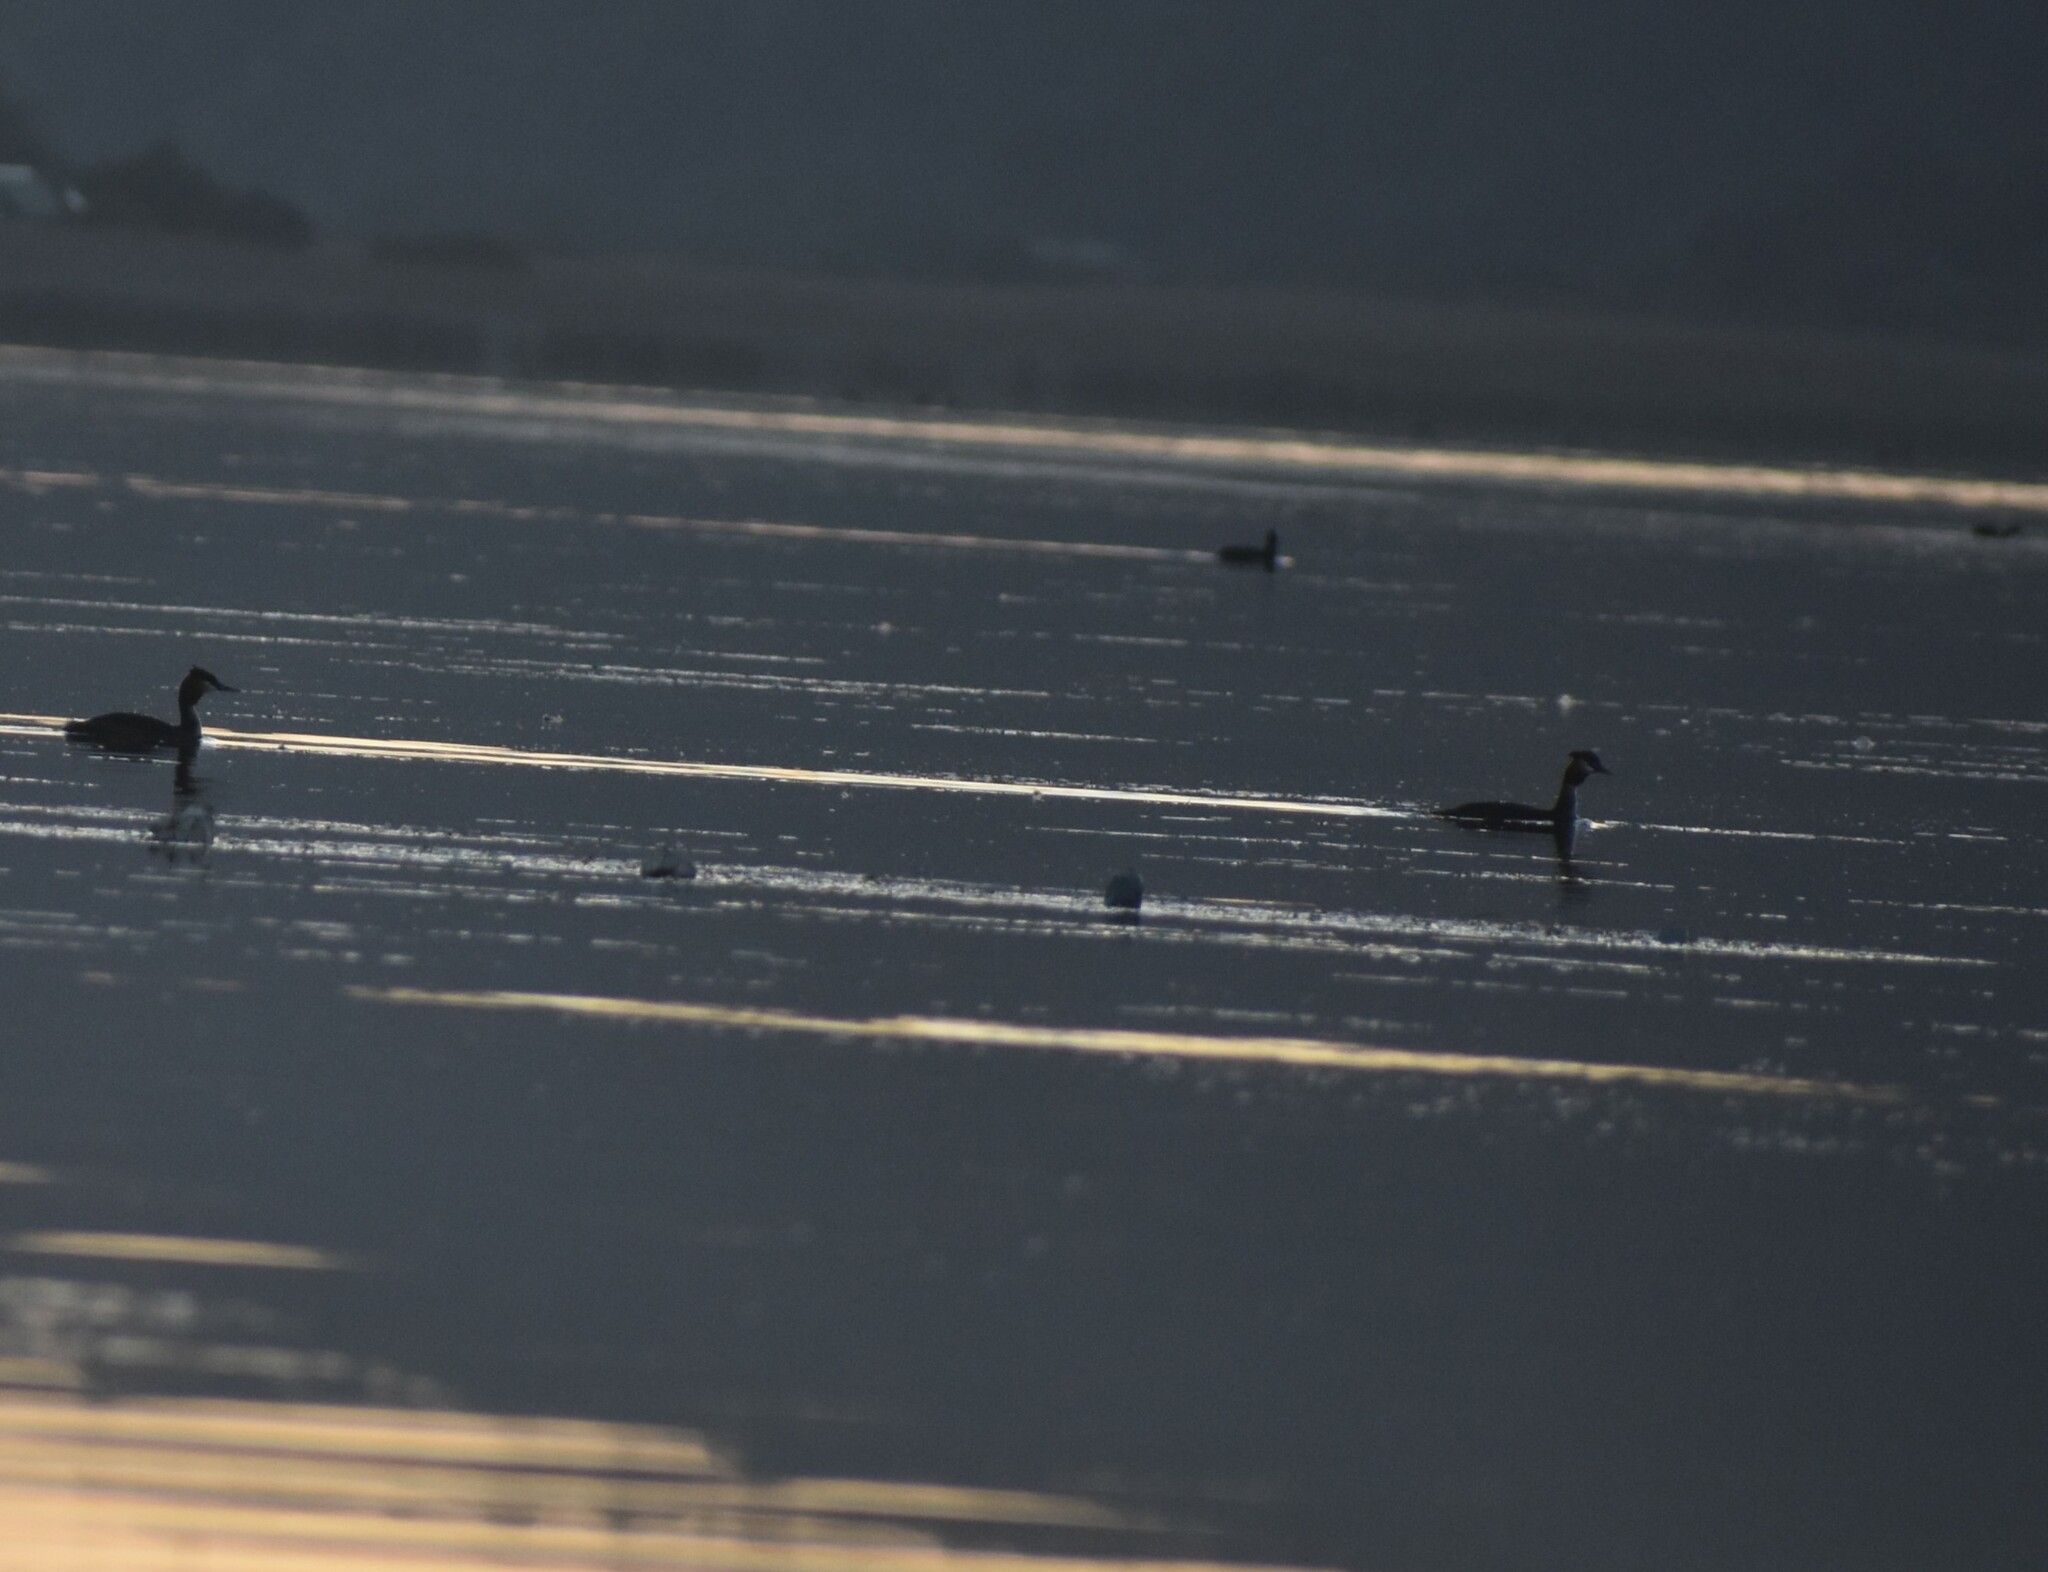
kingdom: Animalia
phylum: Chordata
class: Aves
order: Podicipediformes
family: Podicipedidae
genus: Podiceps
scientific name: Podiceps cristatus
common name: Great crested grebe
